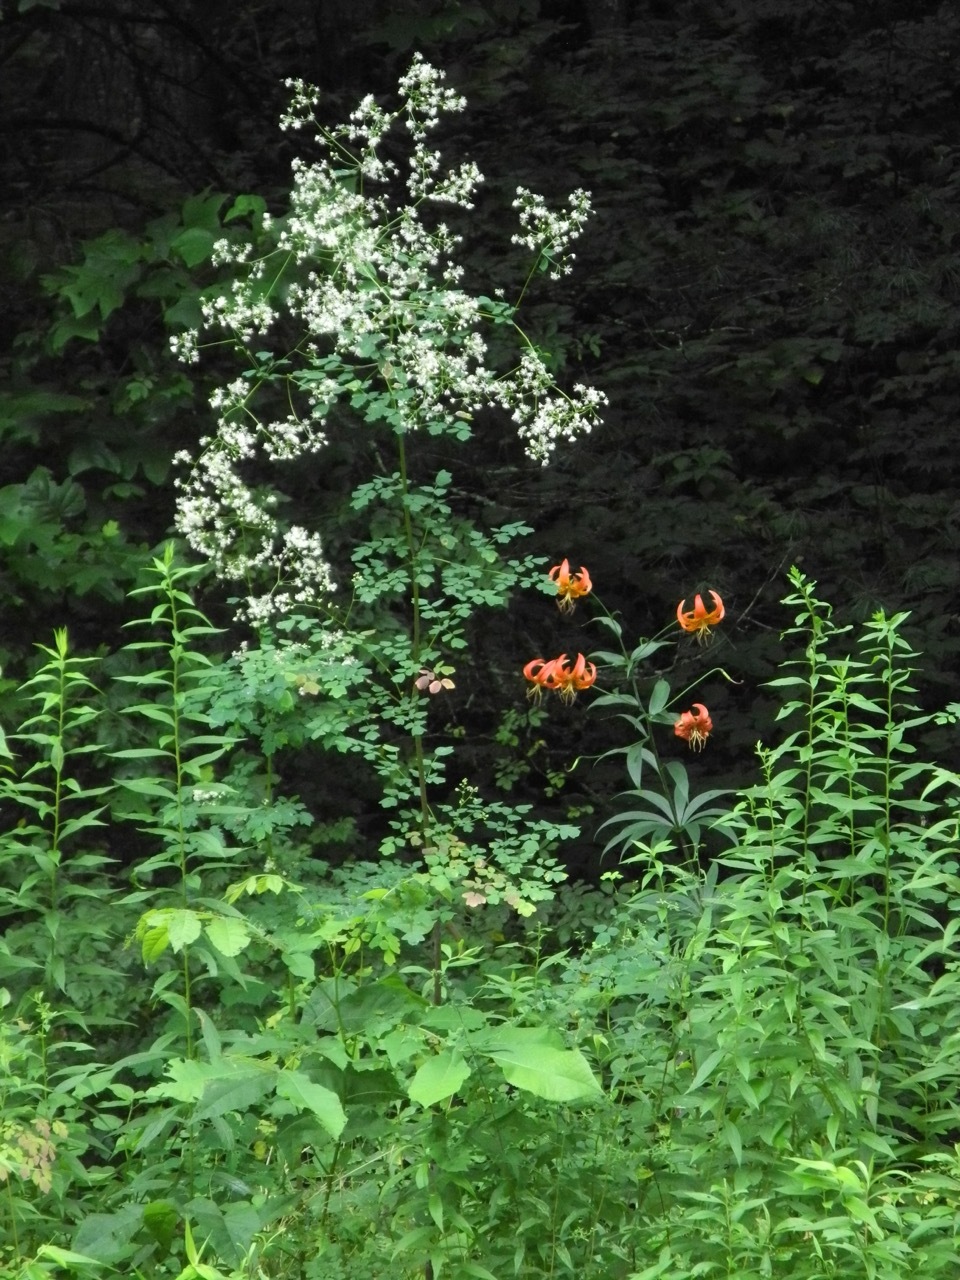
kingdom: Plantae
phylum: Tracheophyta
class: Liliopsida
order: Liliales
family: Liliaceae
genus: Lilium
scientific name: Lilium superbum
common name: American turk's-cap lily
